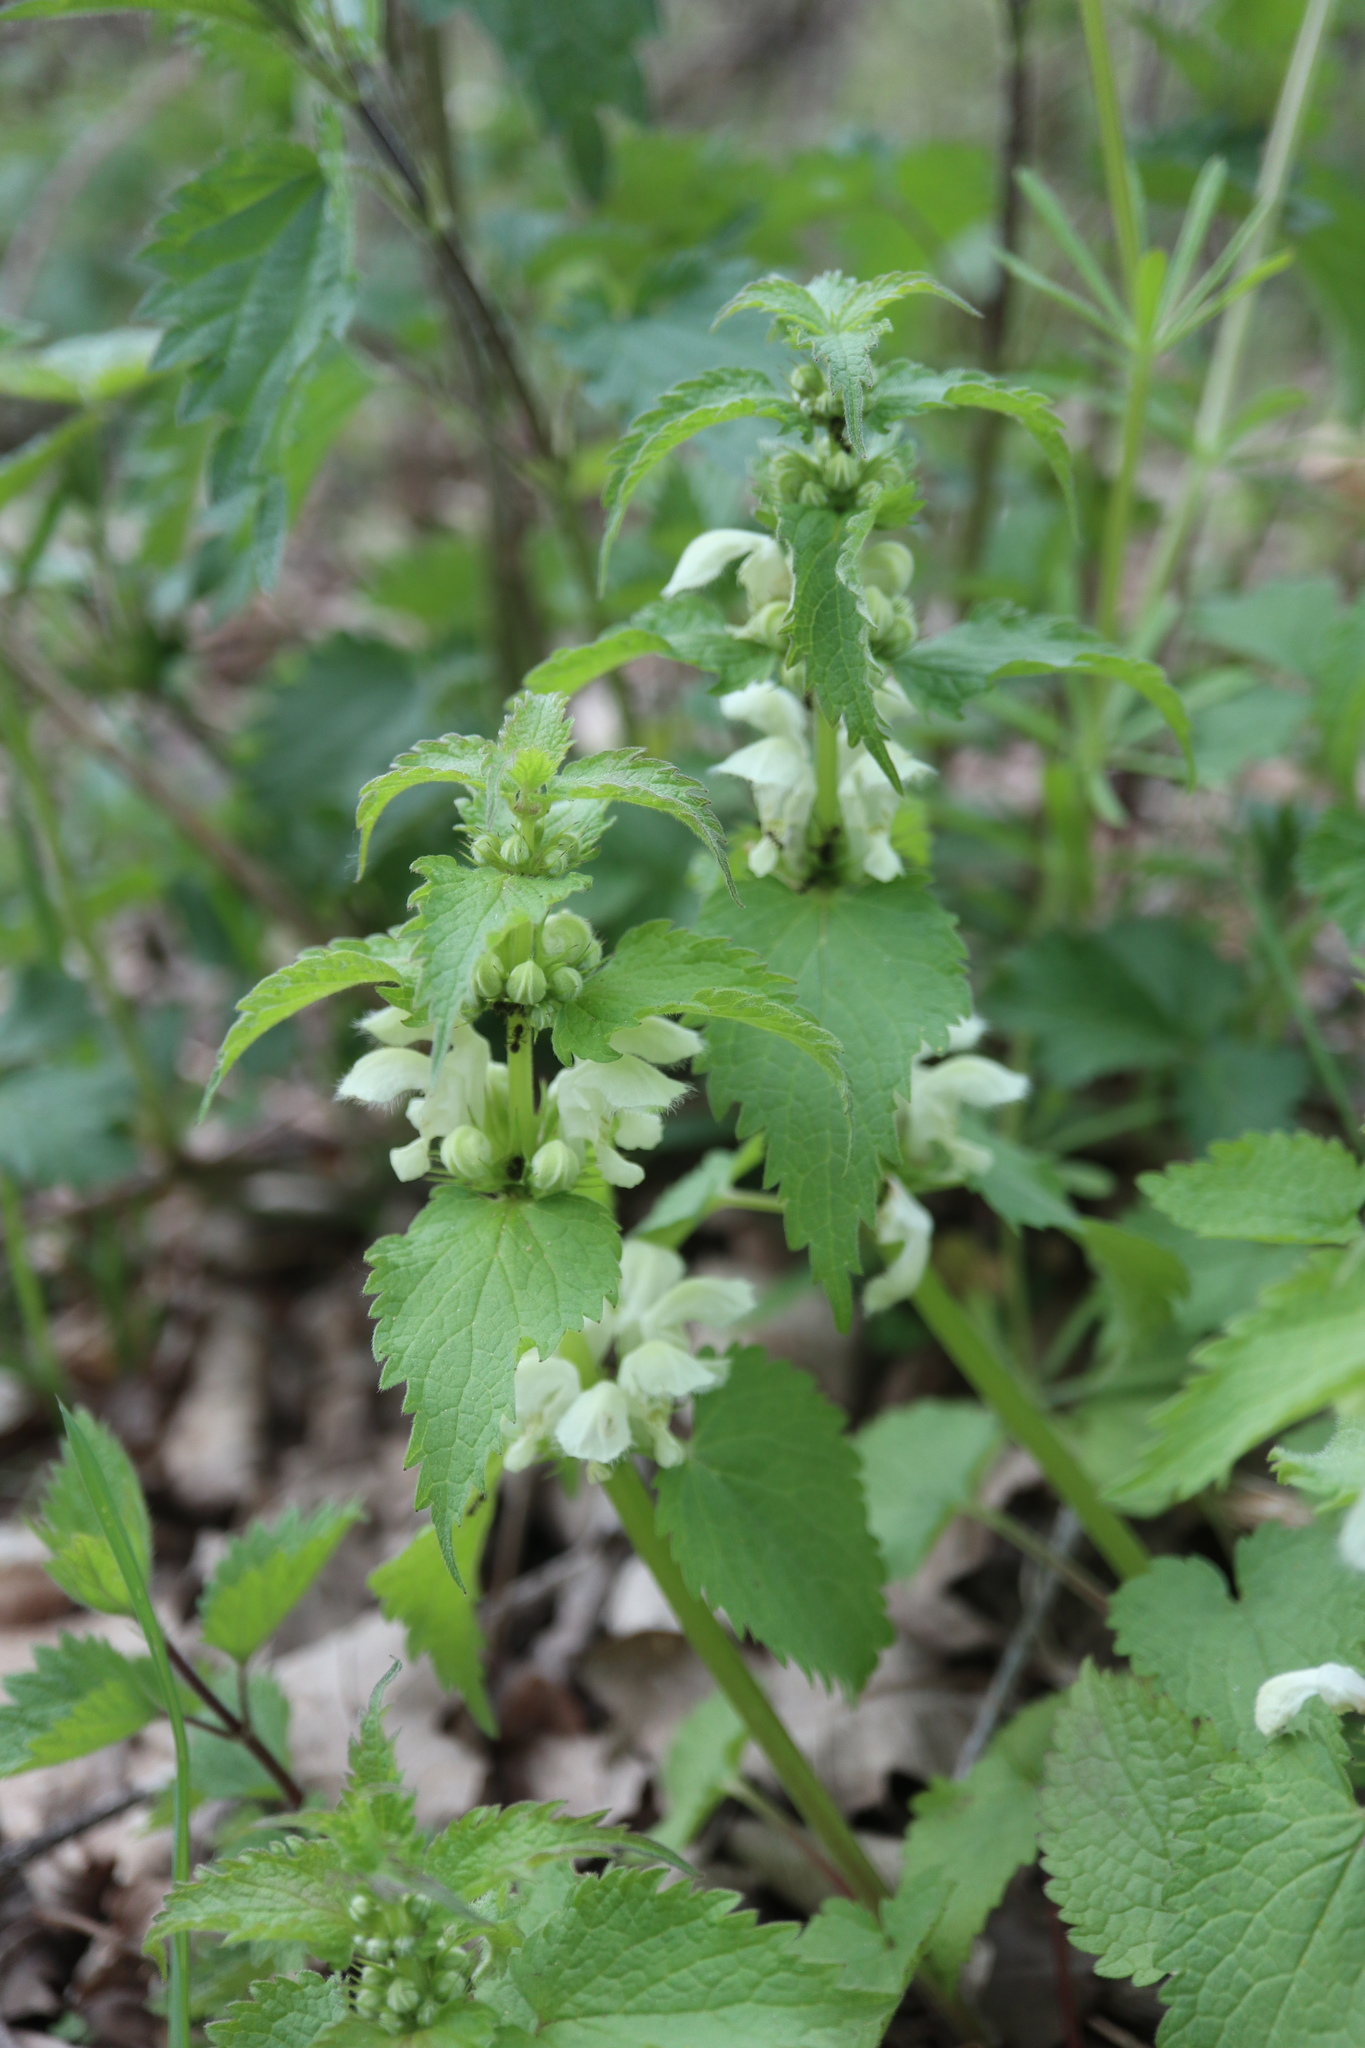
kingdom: Plantae
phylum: Tracheophyta
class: Magnoliopsida
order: Lamiales
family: Lamiaceae
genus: Lamium
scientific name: Lamium album
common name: White dead-nettle
